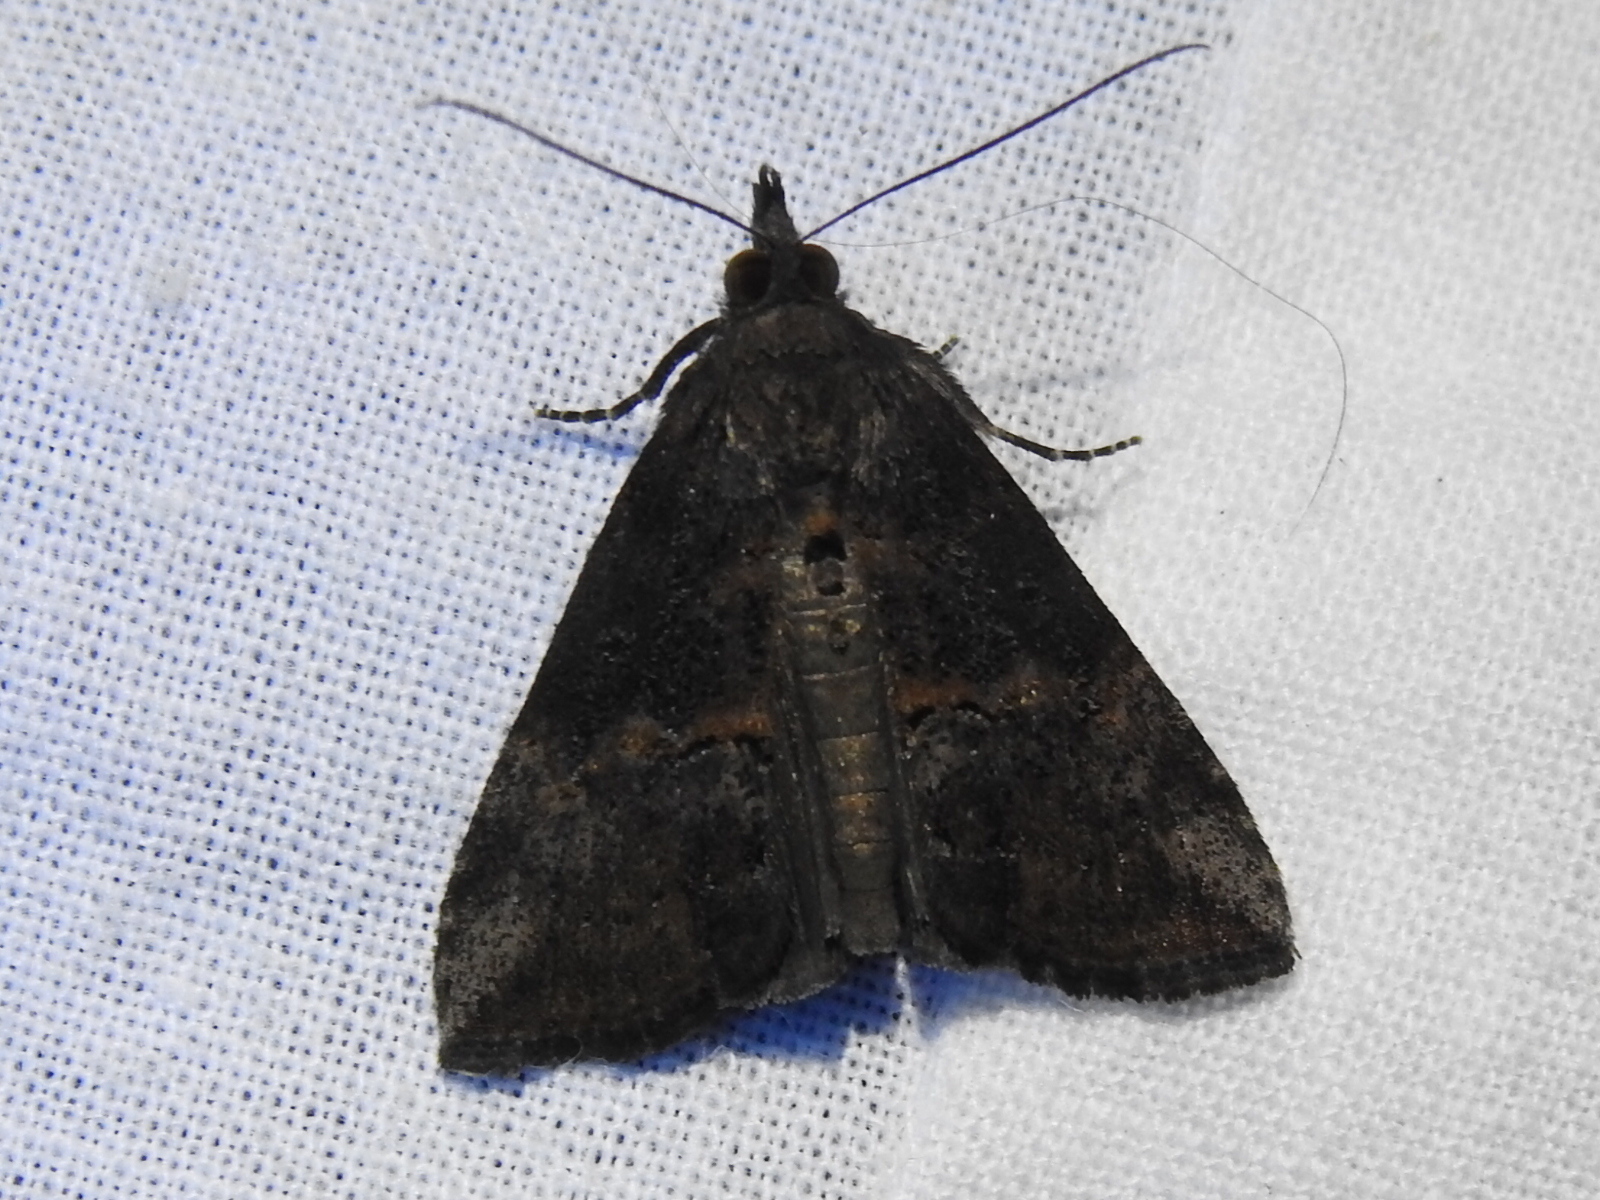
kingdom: Animalia
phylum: Arthropoda
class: Insecta
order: Lepidoptera
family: Erebidae
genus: Hypena
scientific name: Hypena scabra
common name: Green cloverworm
